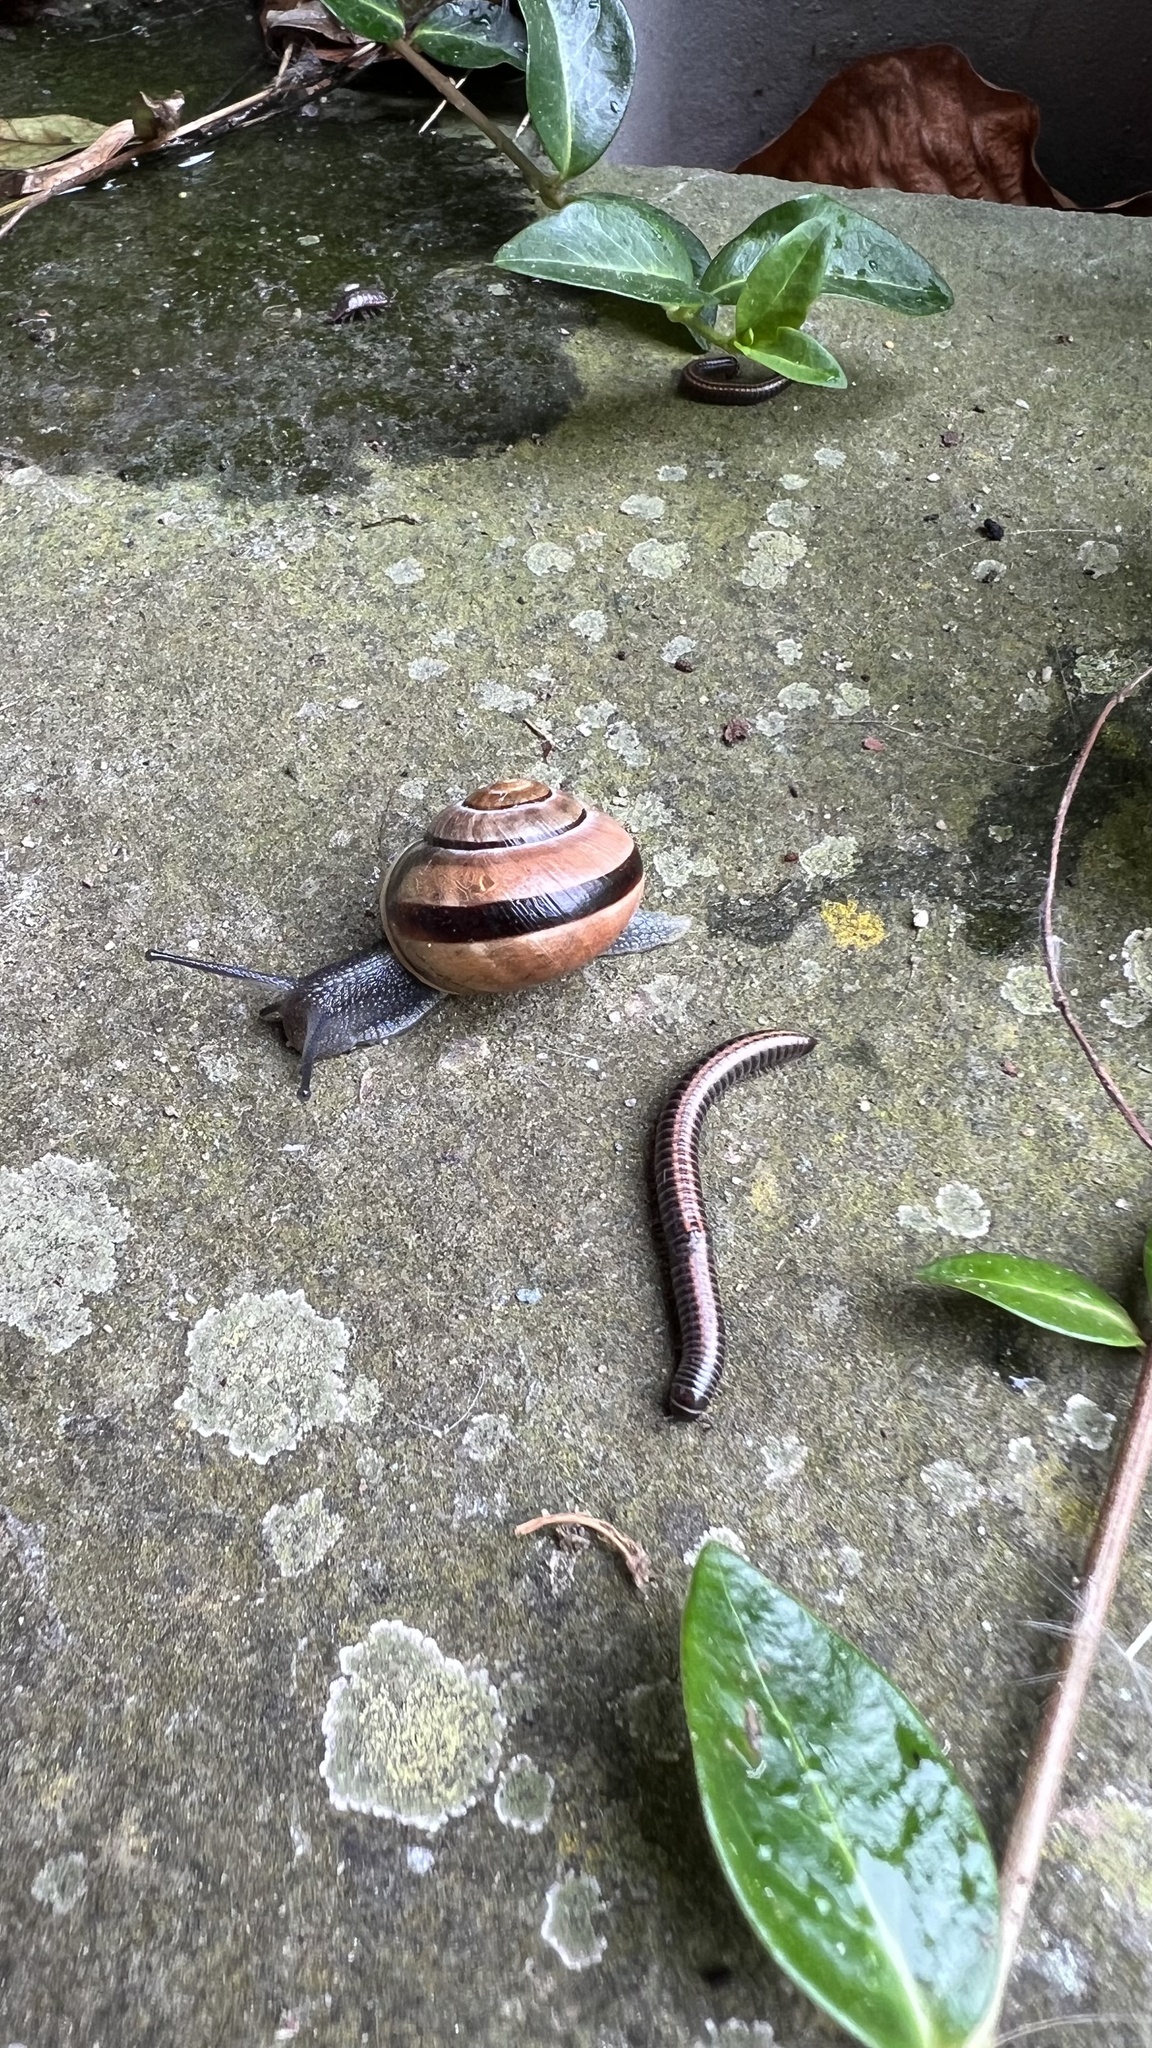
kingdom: Animalia
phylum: Mollusca
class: Gastropoda
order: Stylommatophora
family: Helicidae
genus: Cepaea
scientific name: Cepaea nemoralis
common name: Grovesnail
